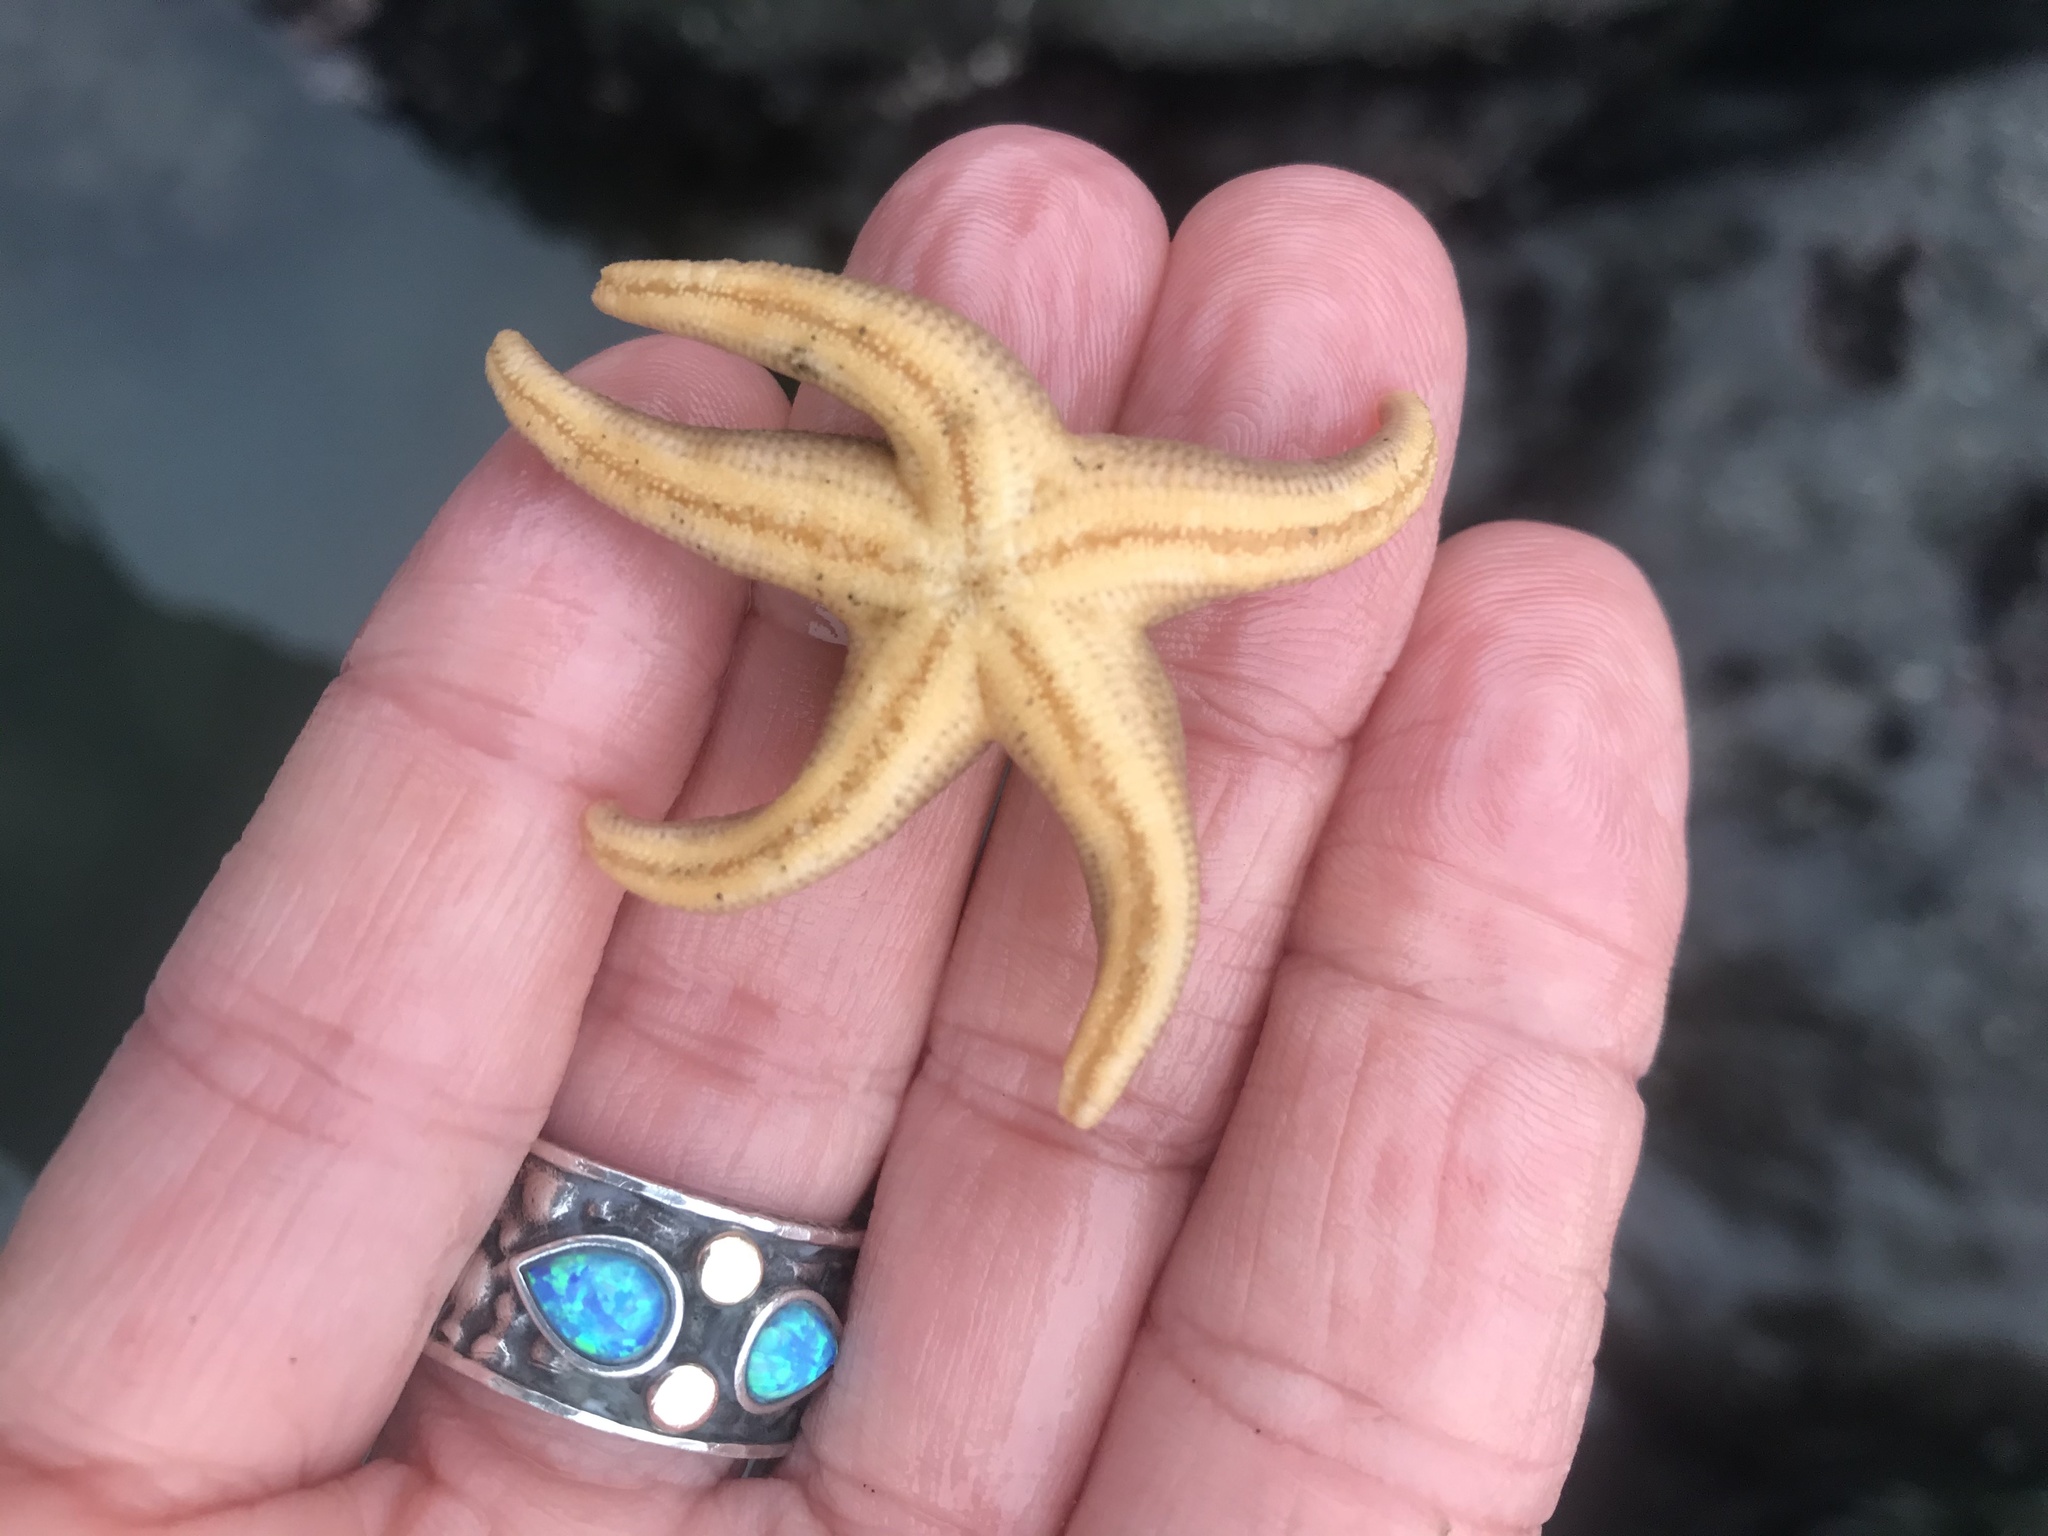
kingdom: Animalia
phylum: Echinodermata
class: Asteroidea
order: Spinulosida
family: Echinasteridae
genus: Henricia
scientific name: Henricia pumila
